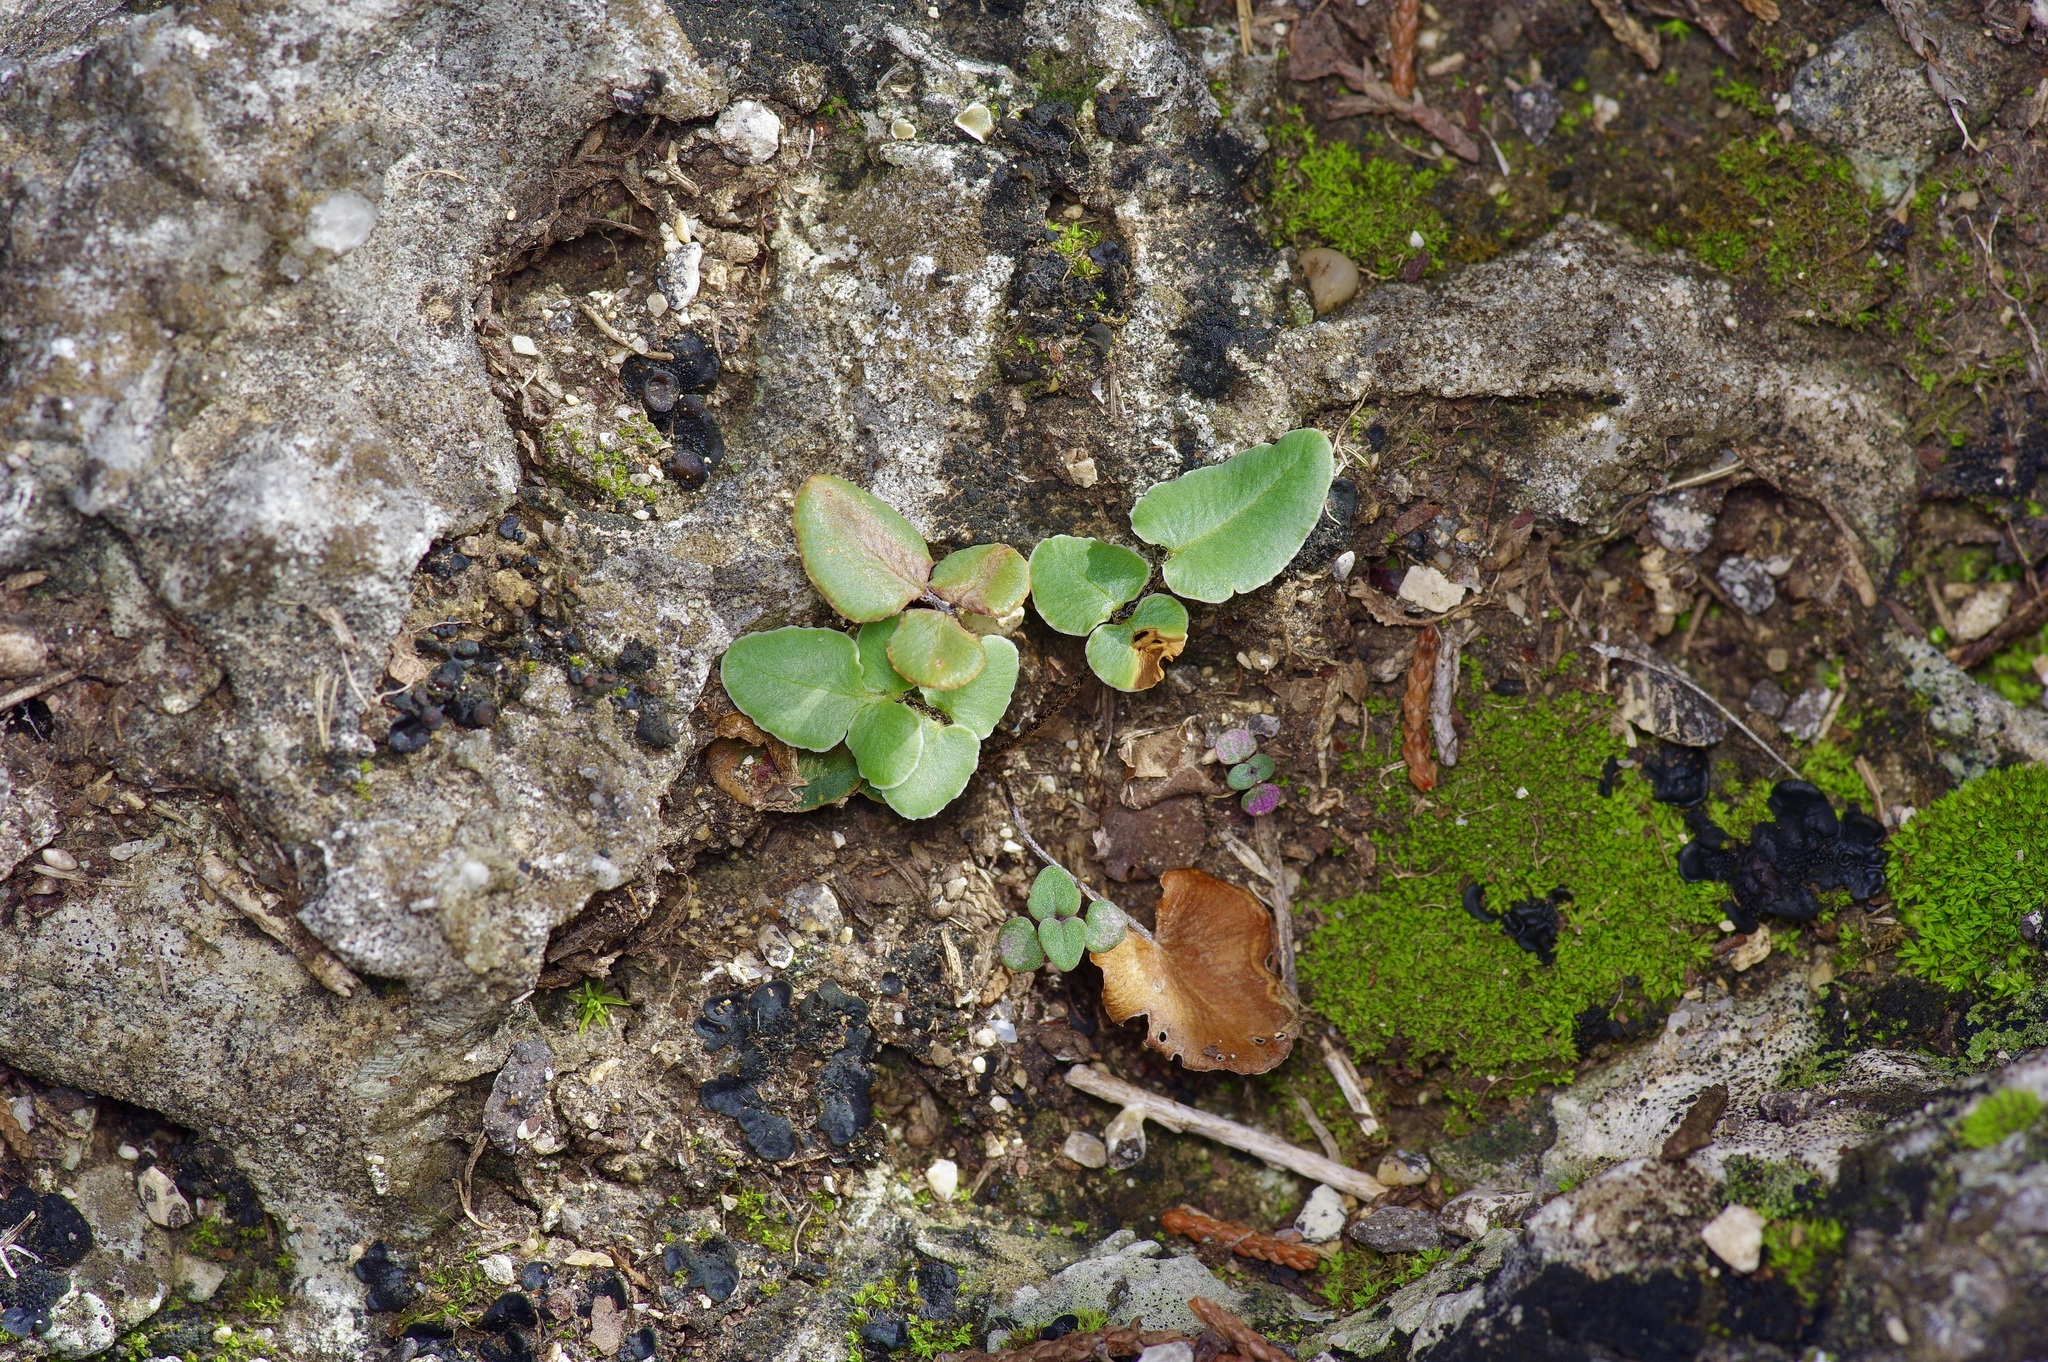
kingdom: Plantae
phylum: Tracheophyta
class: Polypodiopsida
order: Polypodiales
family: Pteridaceae
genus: Pellaea
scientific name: Pellaea atropurpurea
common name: Hairy cliffbrake
